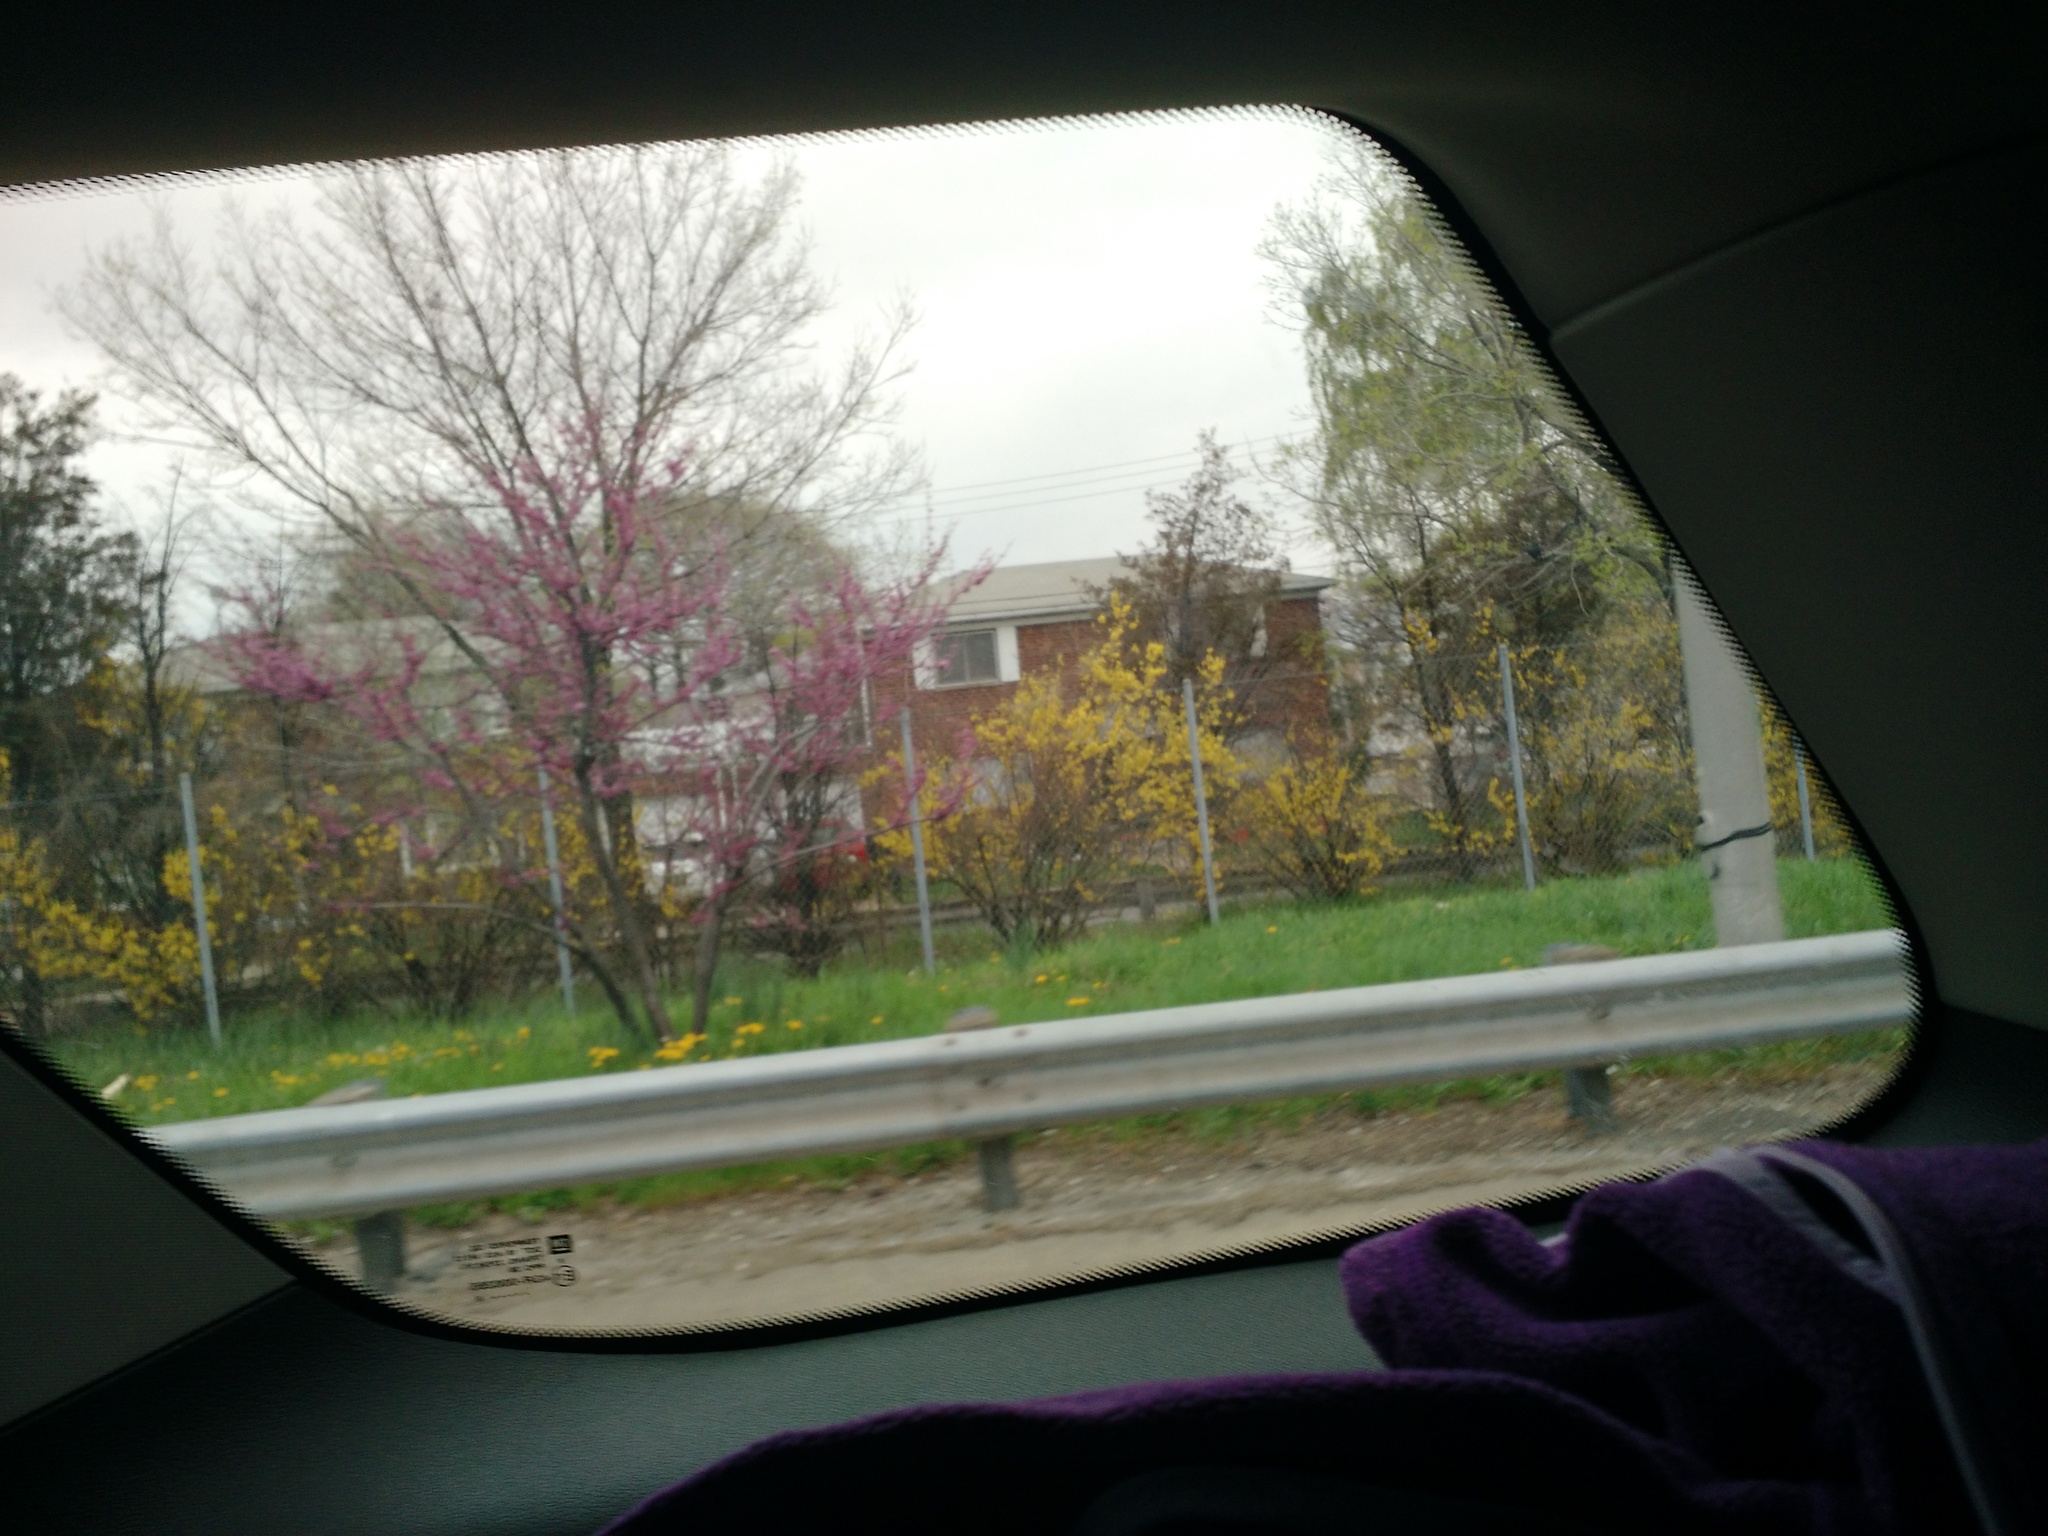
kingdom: Plantae
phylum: Tracheophyta
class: Magnoliopsida
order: Fabales
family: Fabaceae
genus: Cercis
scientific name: Cercis canadensis
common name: Eastern redbud
